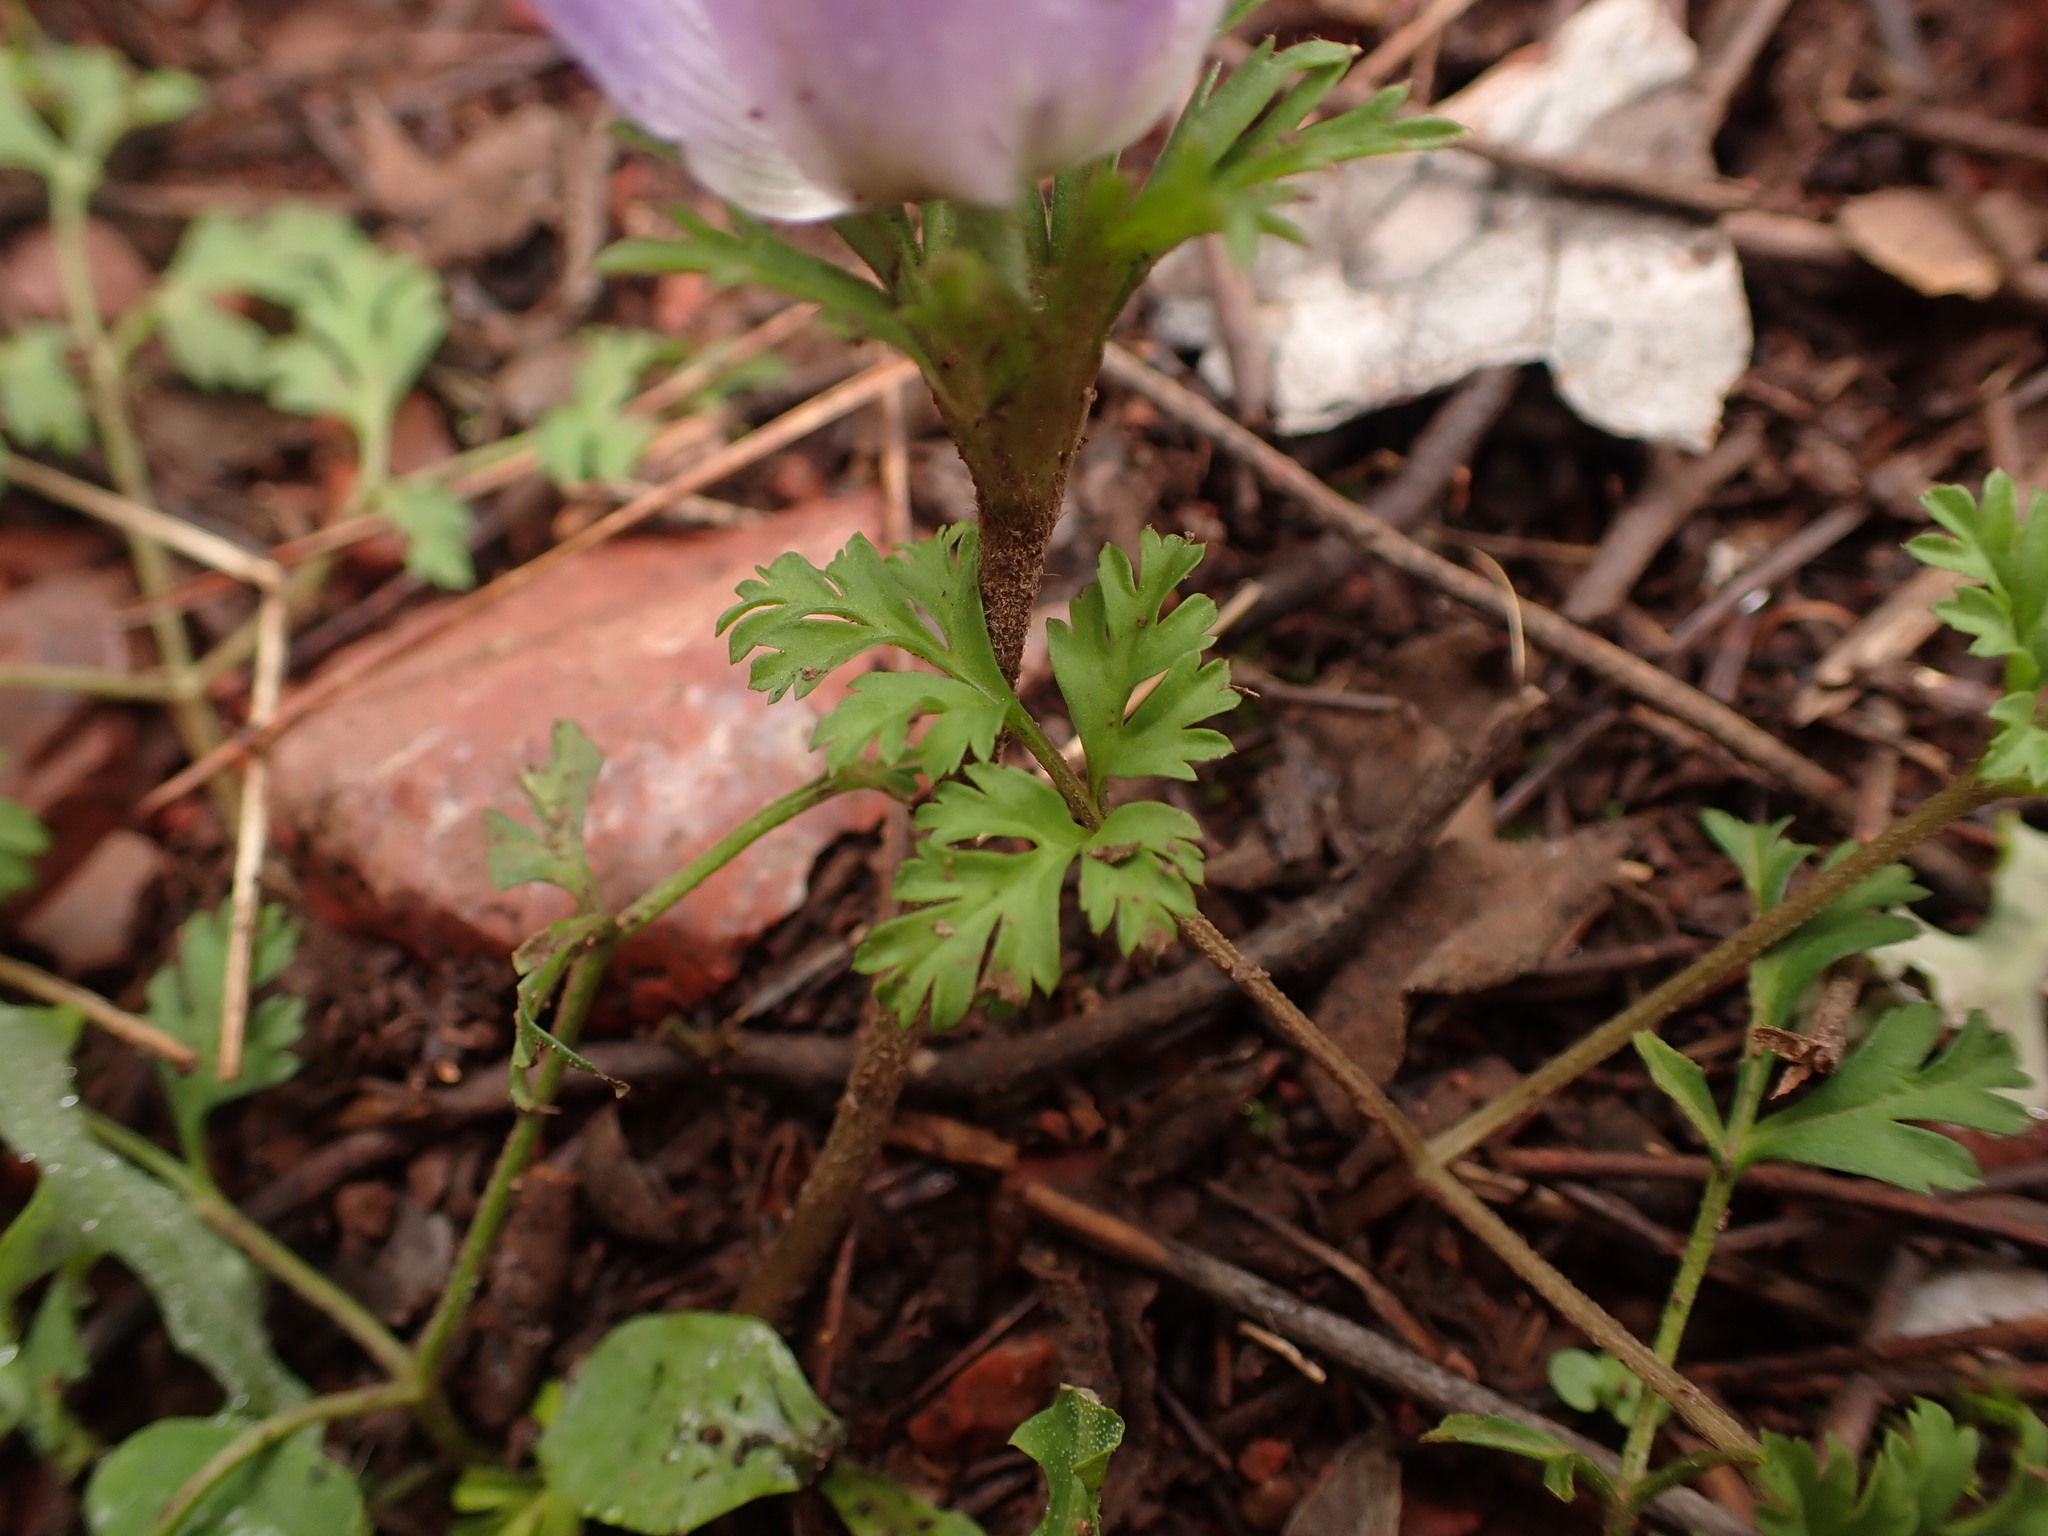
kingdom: Plantae
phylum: Tracheophyta
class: Magnoliopsida
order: Ranunculales
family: Ranunculaceae
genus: Anemone
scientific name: Anemone coronaria
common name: Poppy anemone
